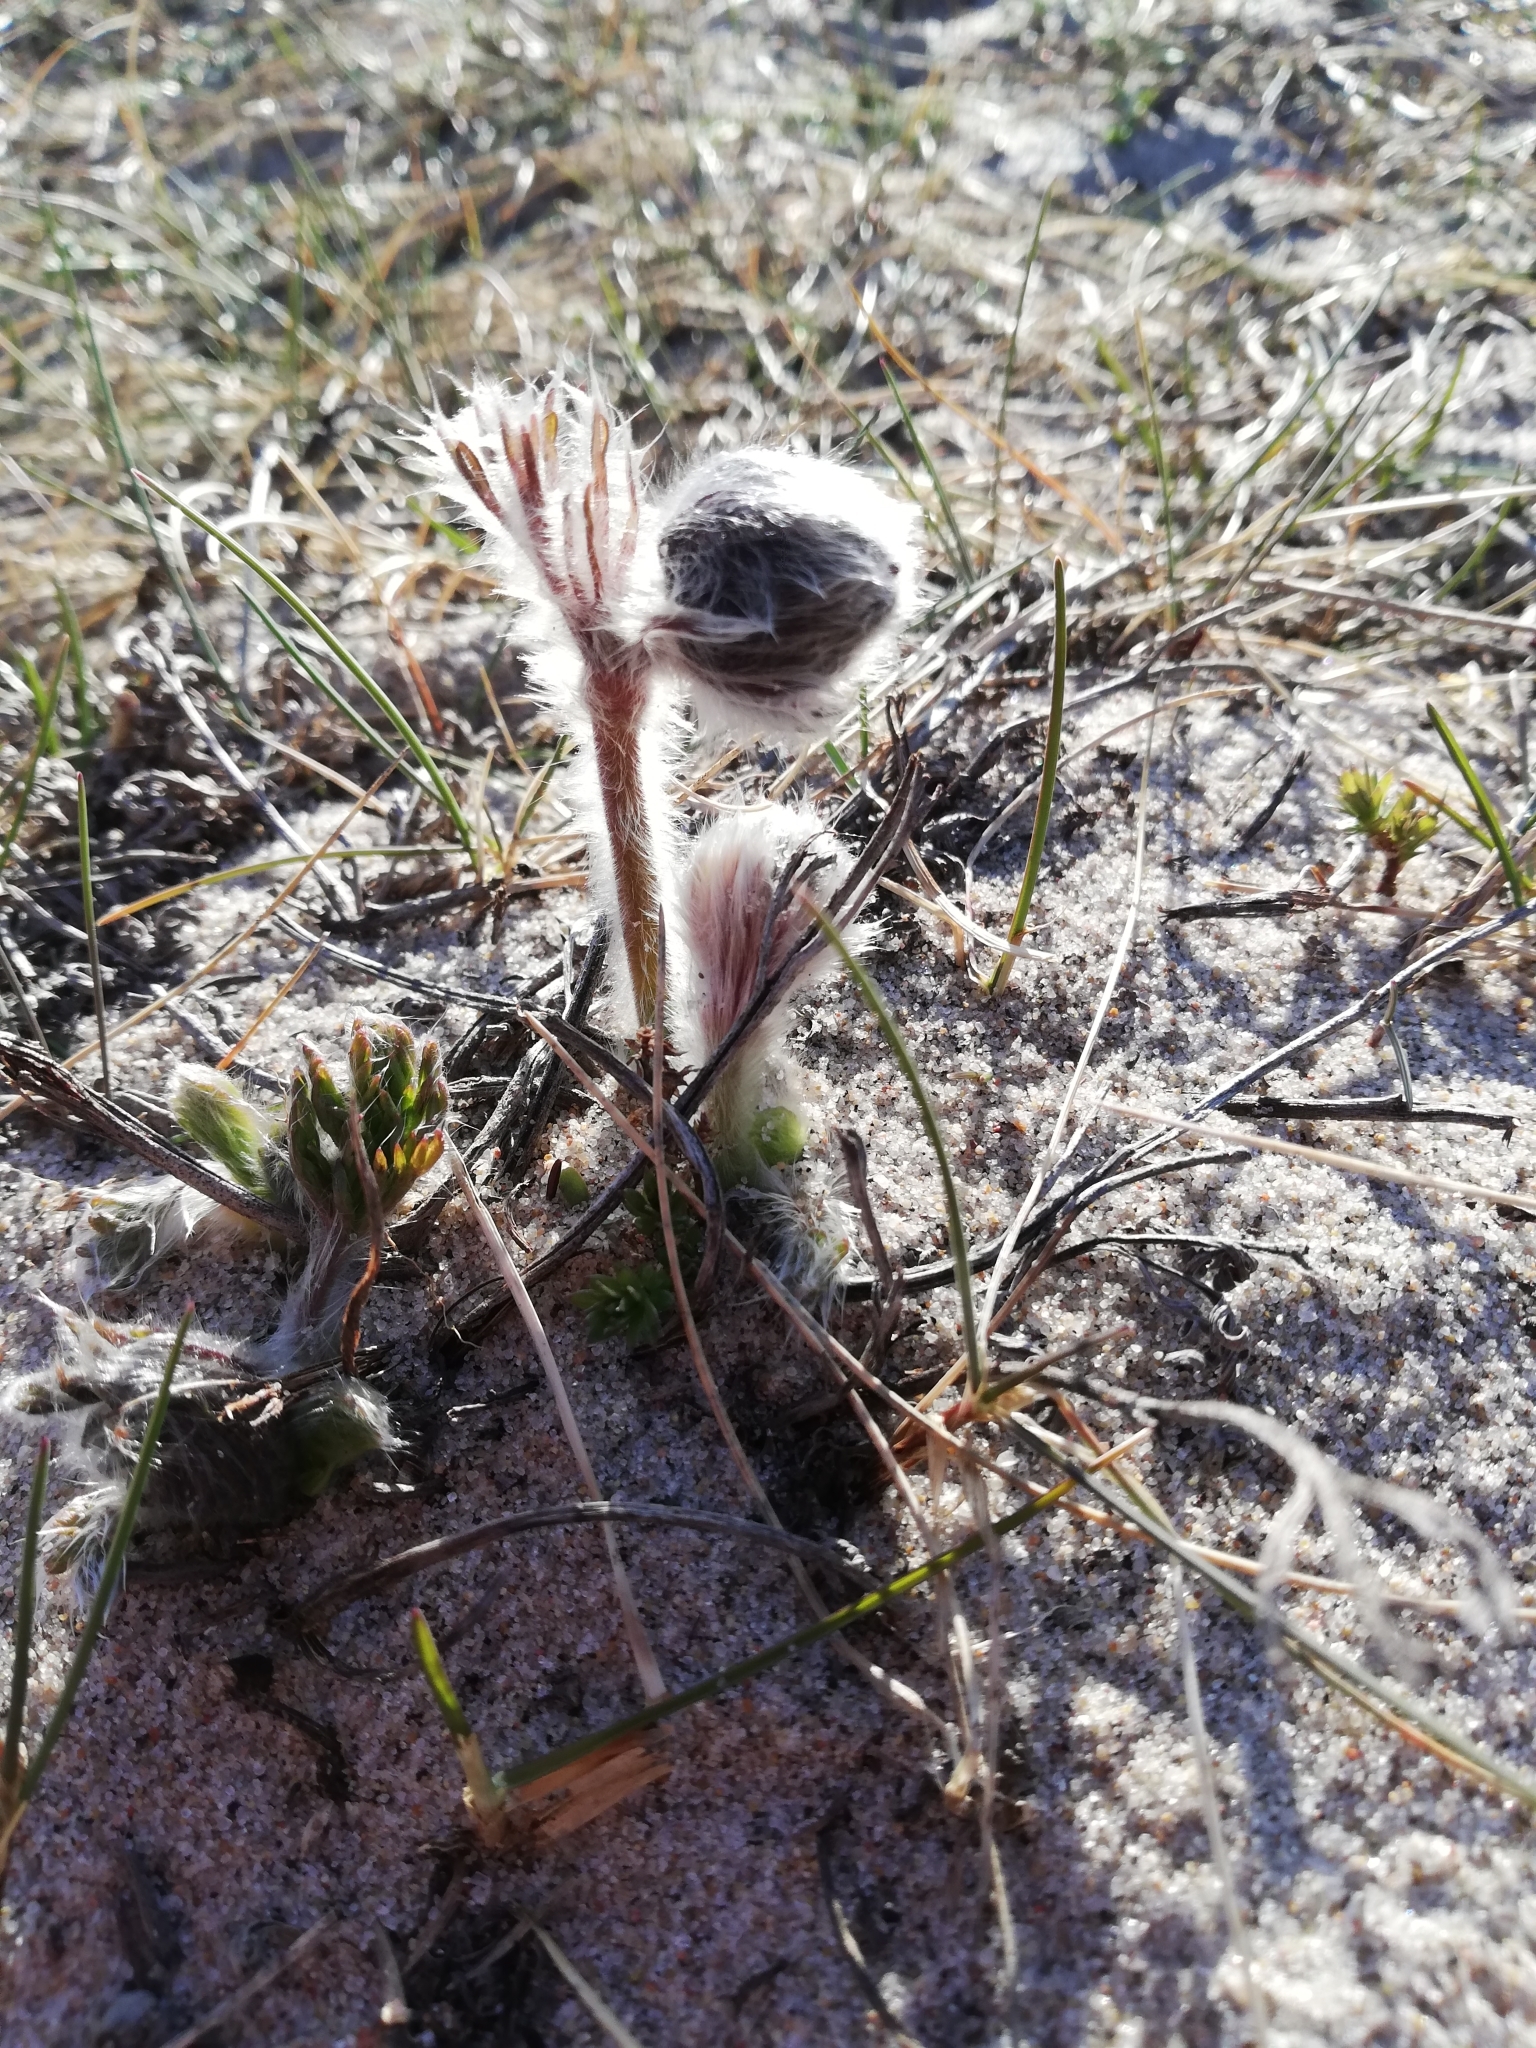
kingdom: Plantae
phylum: Tracheophyta
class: Magnoliopsida
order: Ranunculales
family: Ranunculaceae
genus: Pulsatilla
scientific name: Pulsatilla pratensis
